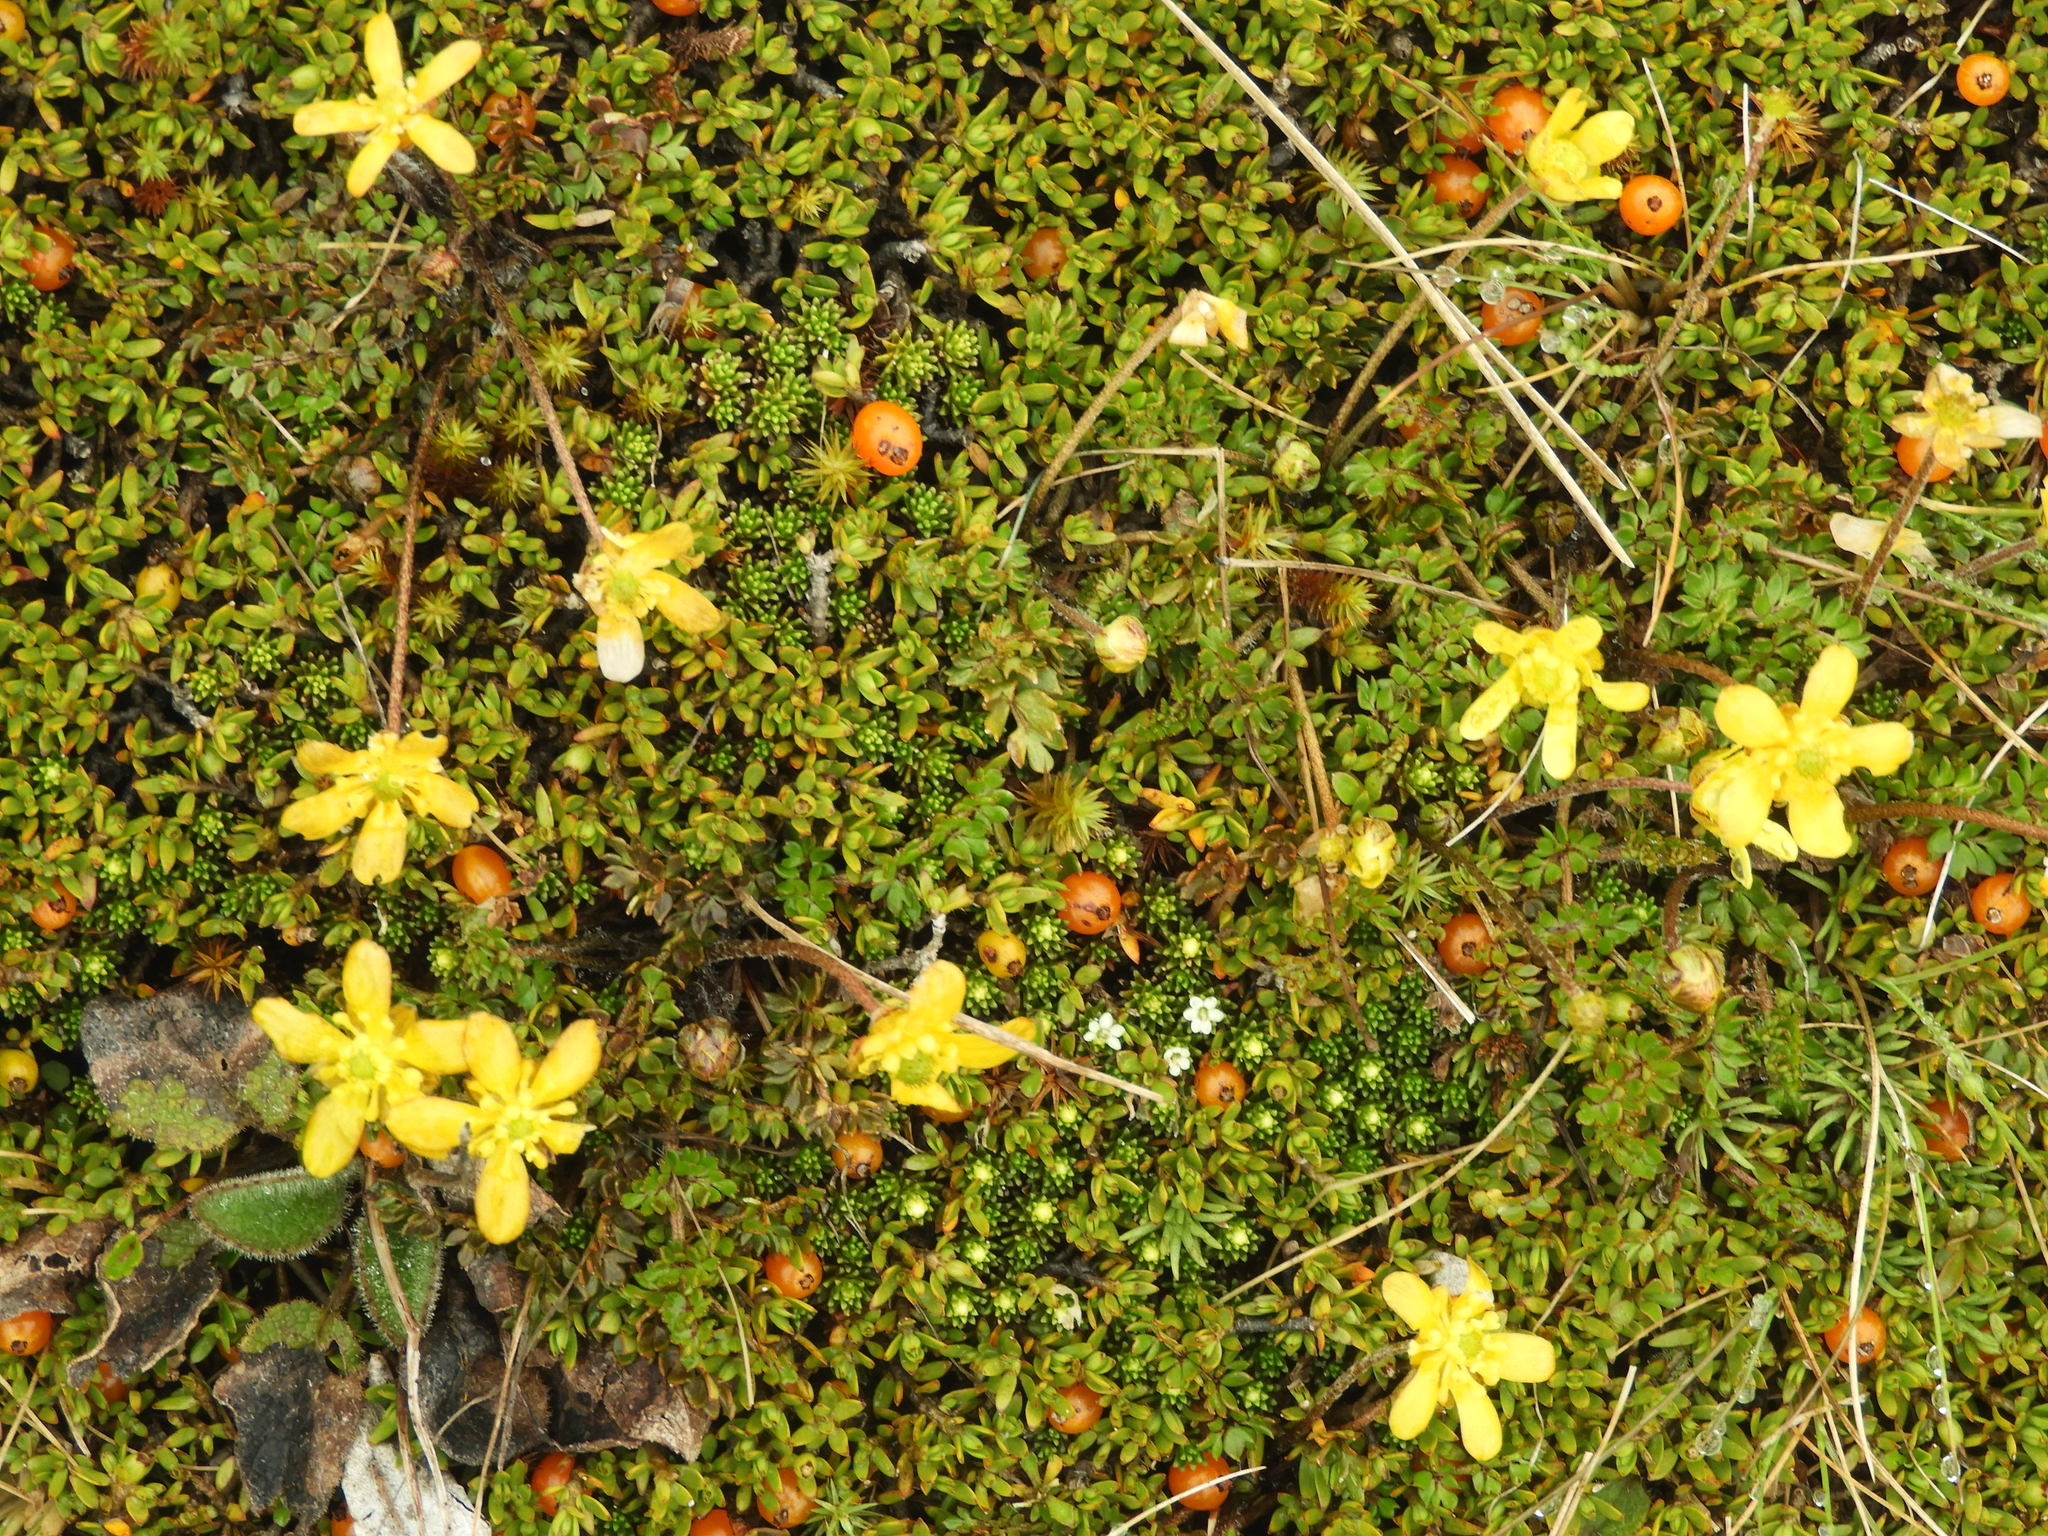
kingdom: Plantae
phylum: Tracheophyta
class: Magnoliopsida
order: Ranunculales
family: Ranunculaceae
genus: Ranunculus
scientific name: Ranunculus gracilipes
